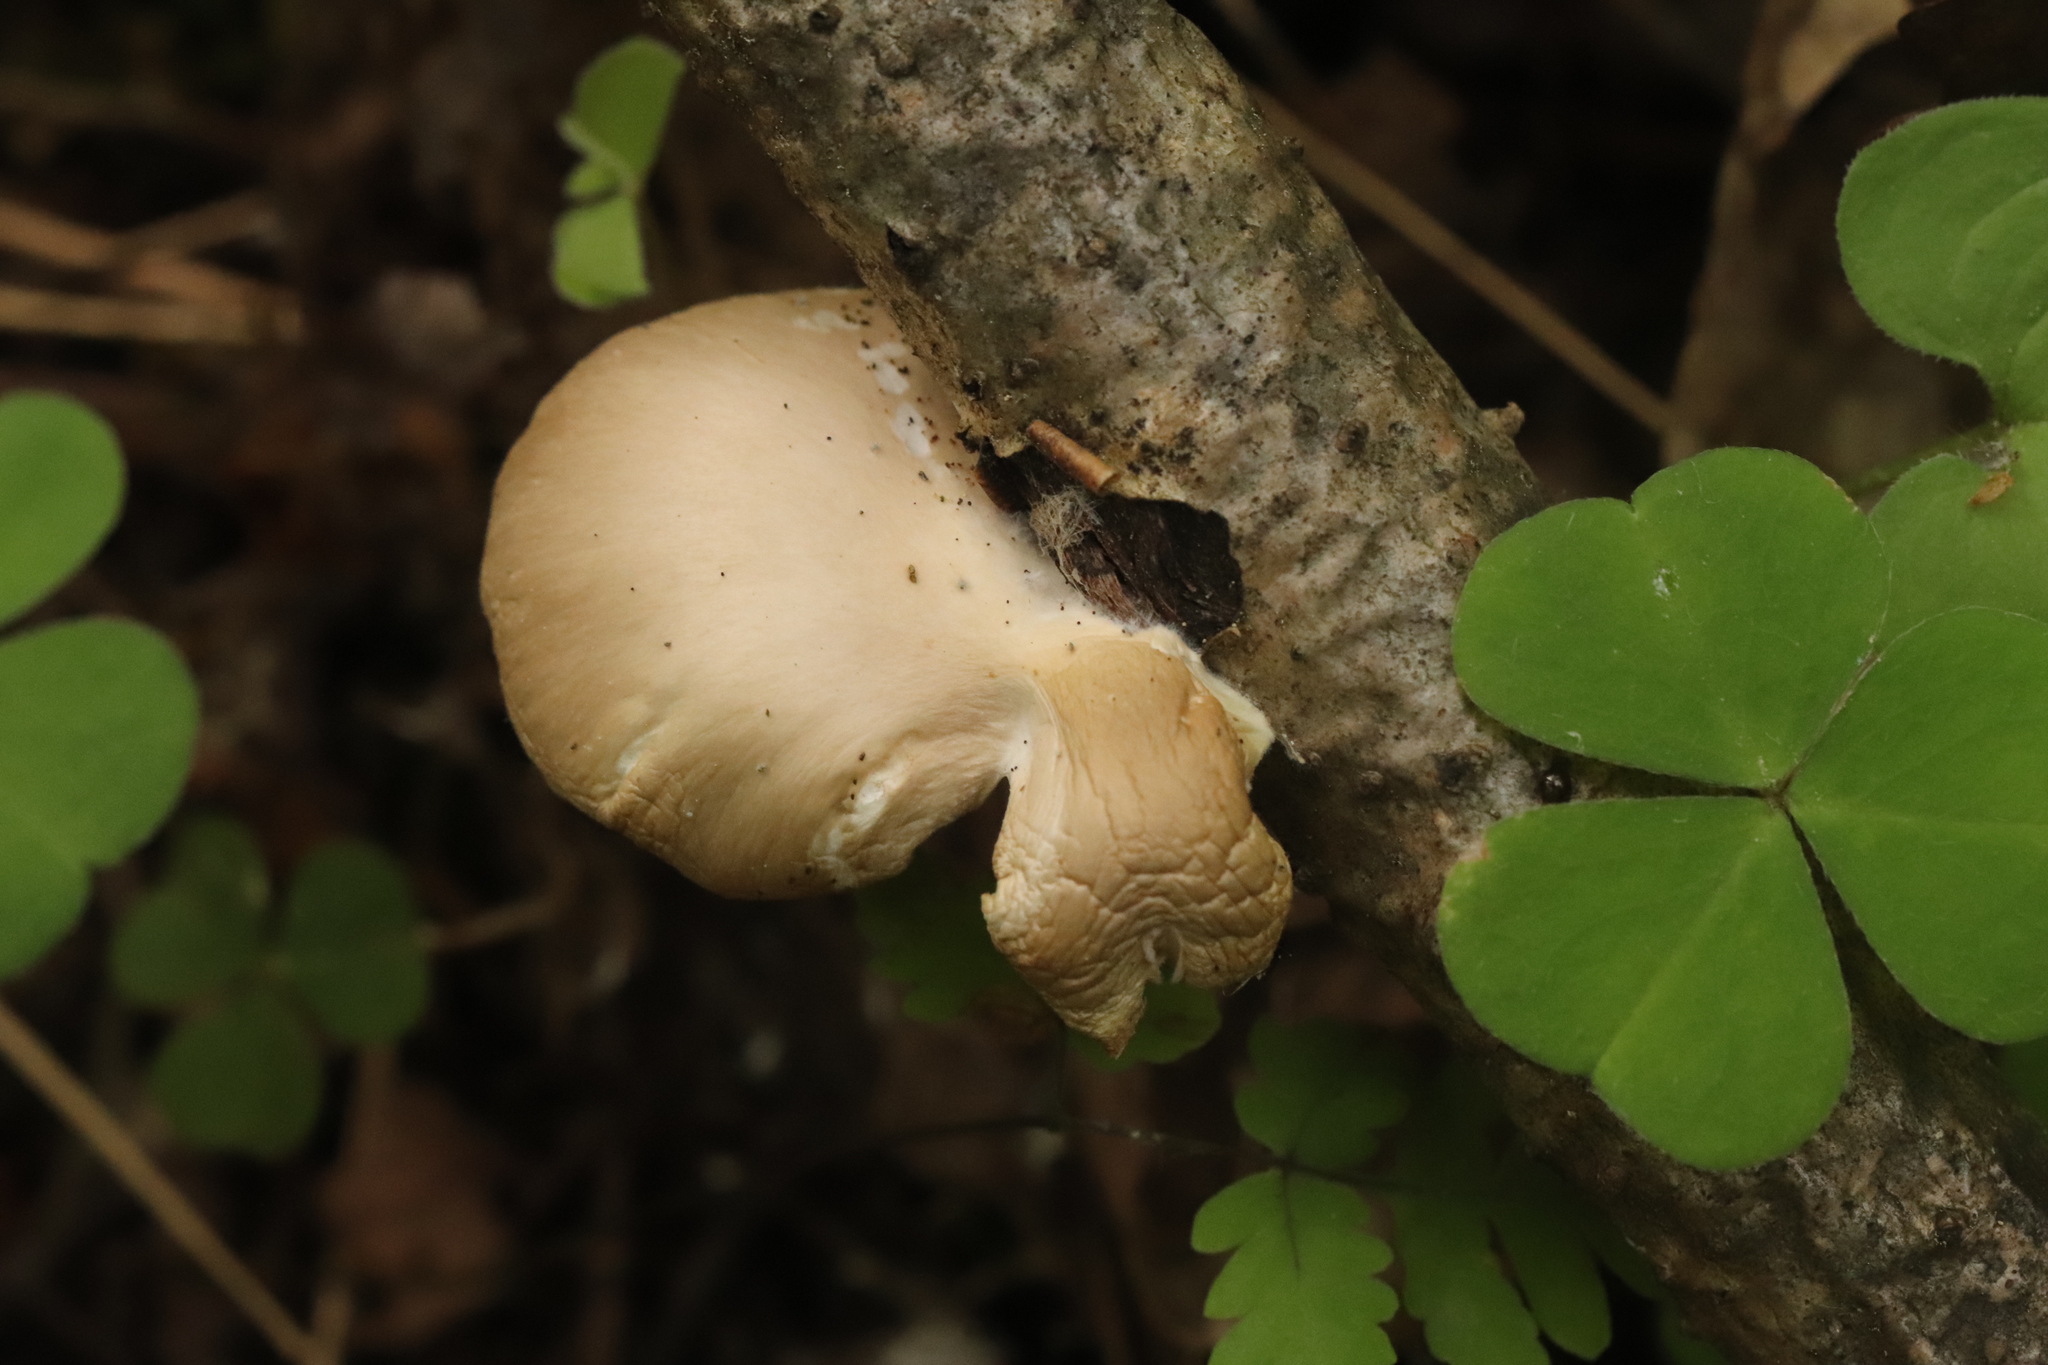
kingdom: Fungi
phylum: Basidiomycota
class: Agaricomycetes
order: Agaricales
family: Pleurotaceae
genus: Pleurotus
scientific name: Pleurotus pulmonarius
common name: Pale oyster
